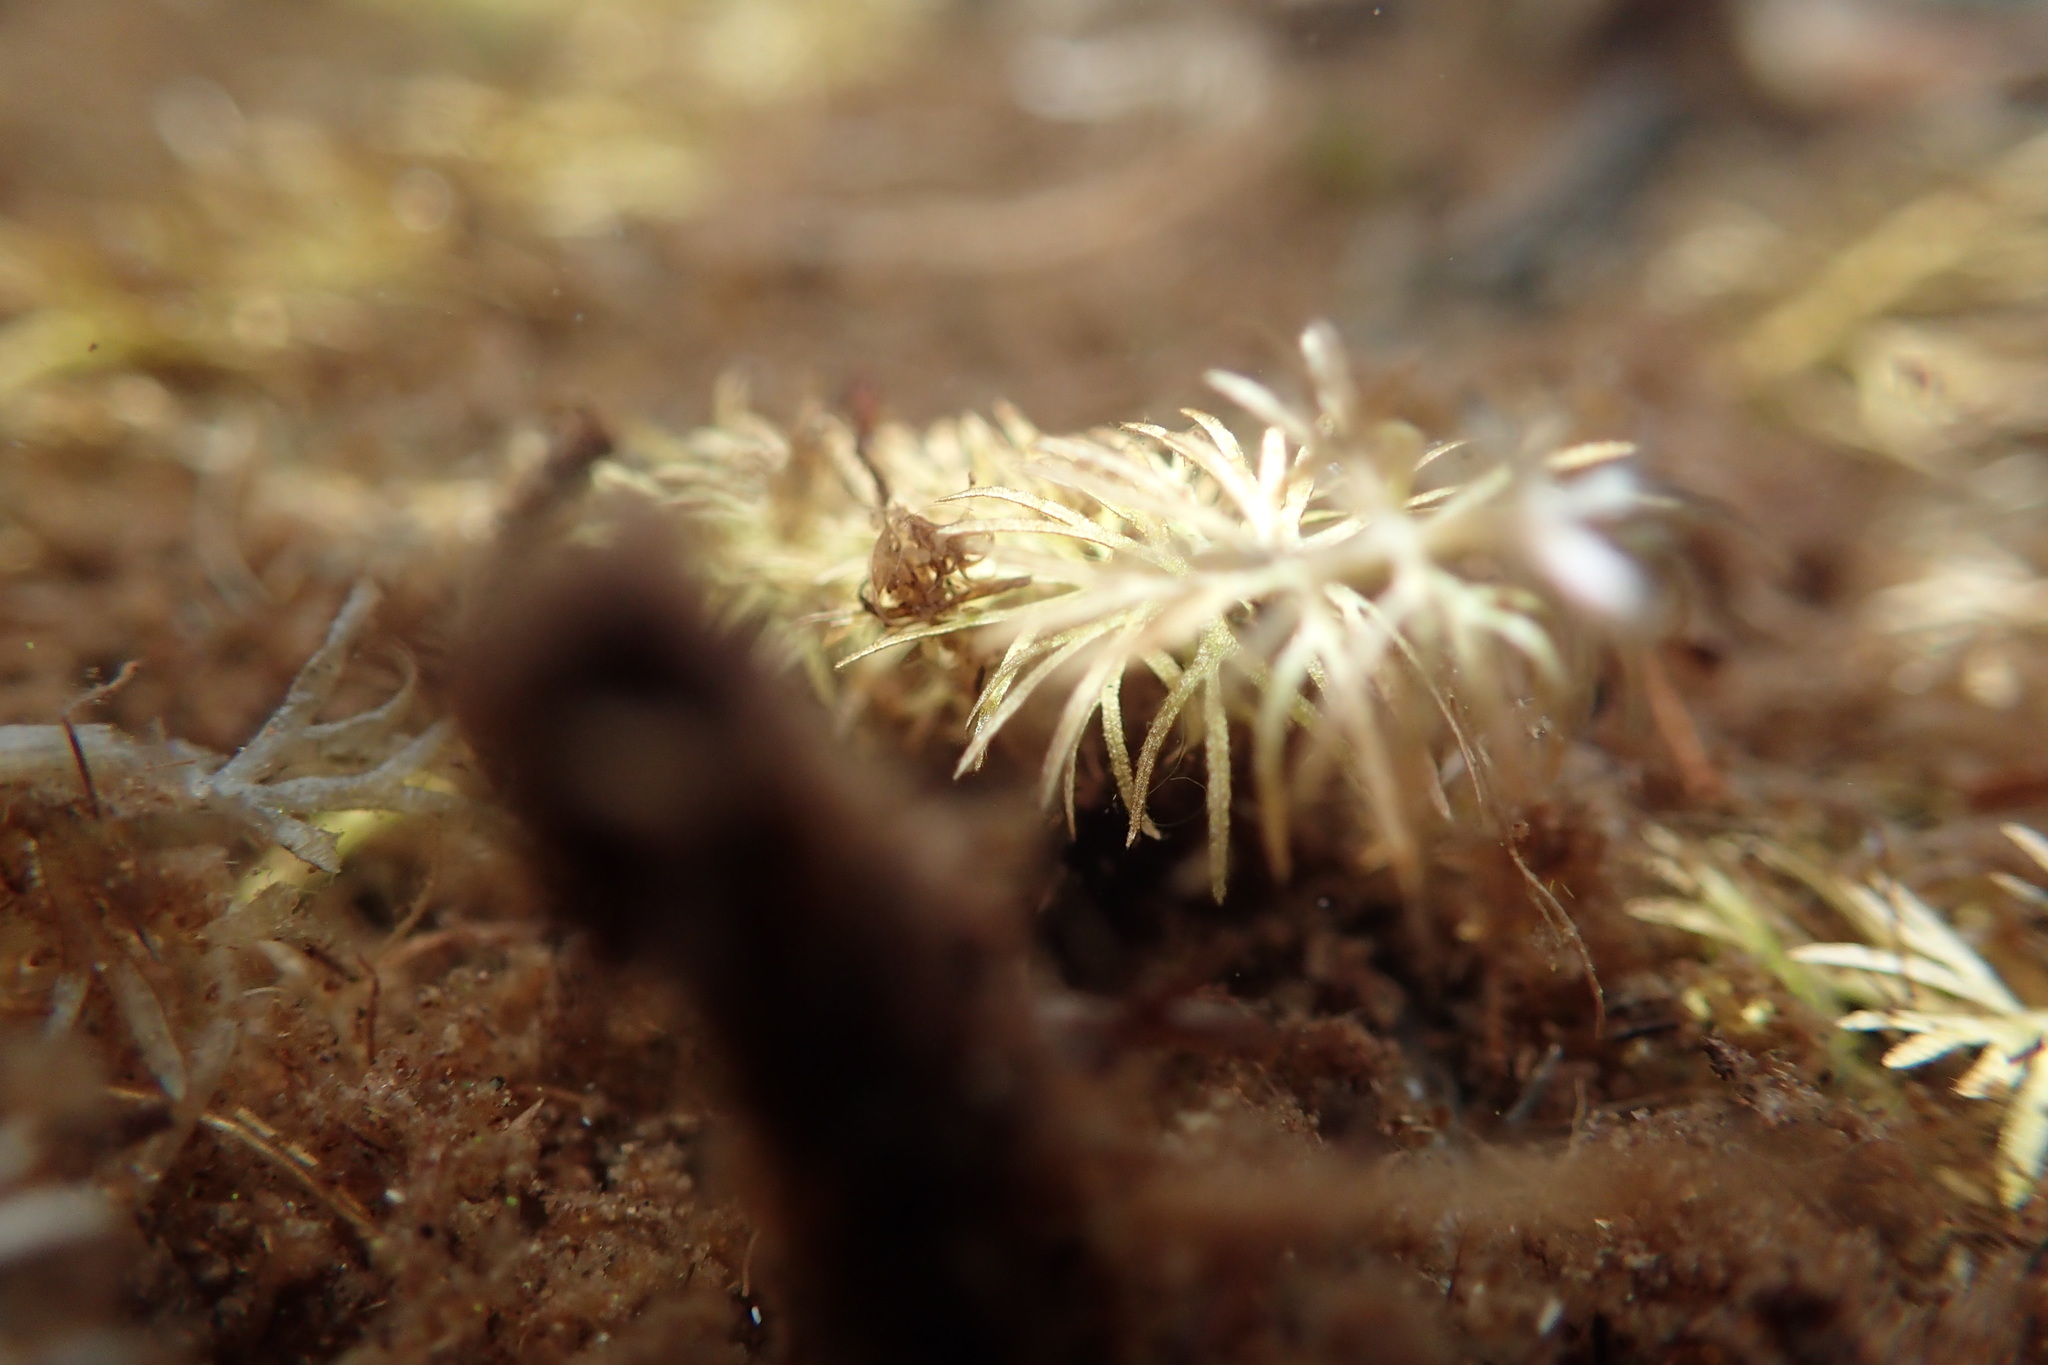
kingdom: Plantae
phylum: Tracheophyta
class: Magnoliopsida
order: Lamiales
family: Lentibulariaceae
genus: Utricularia
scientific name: Utricularia intermedia
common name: Intermediate bladderwort
